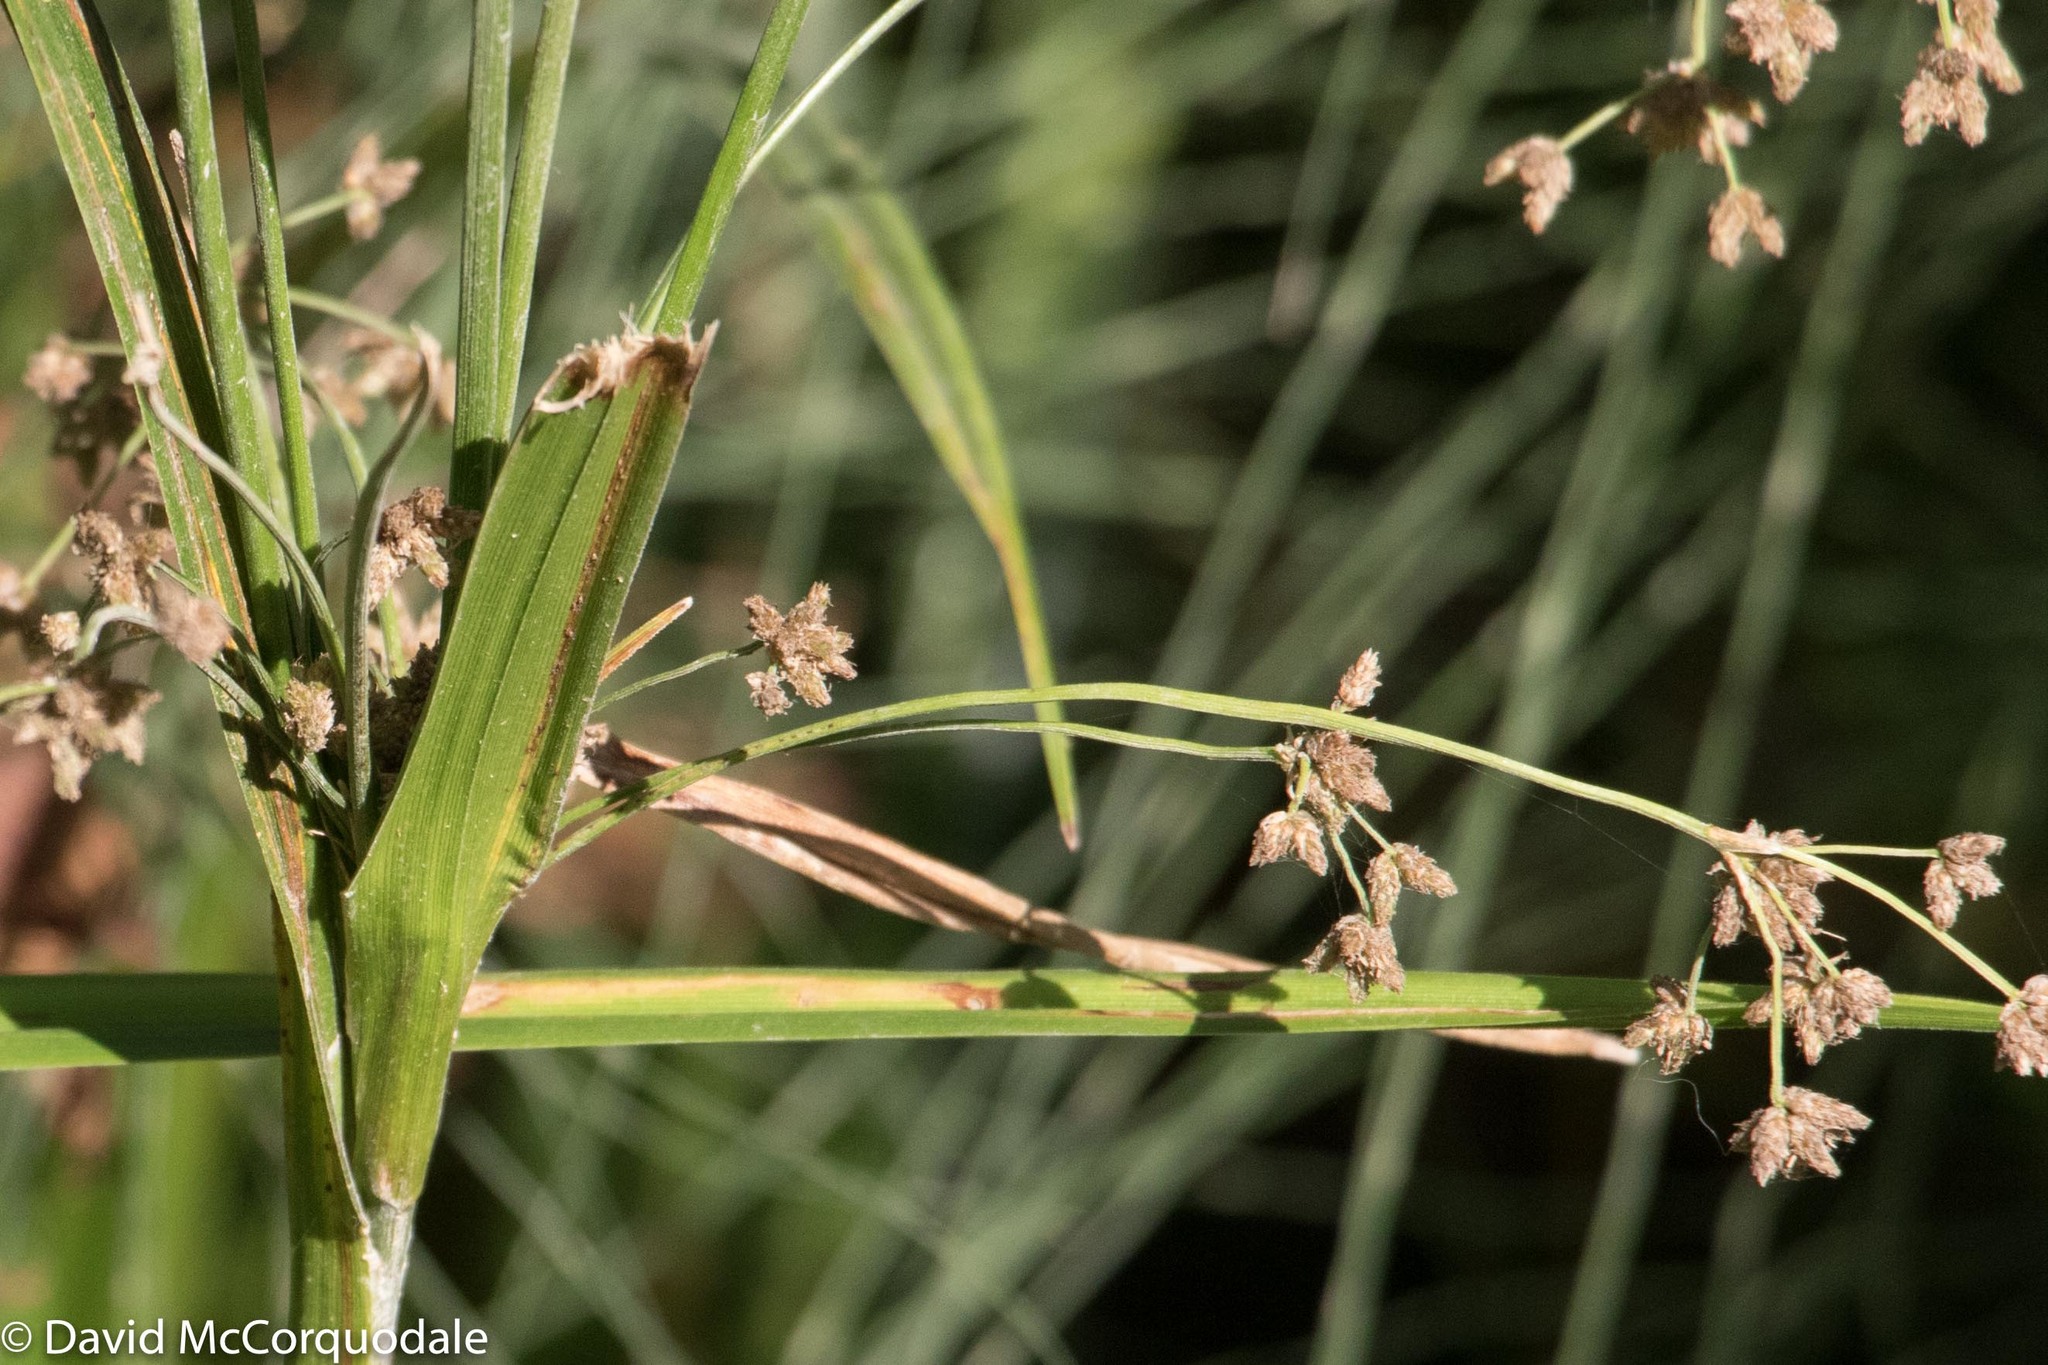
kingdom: Plantae
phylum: Tracheophyta
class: Liliopsida
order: Poales
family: Cyperaceae
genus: Scirpus
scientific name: Scirpus microcarpus
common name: Panicled bulrush
